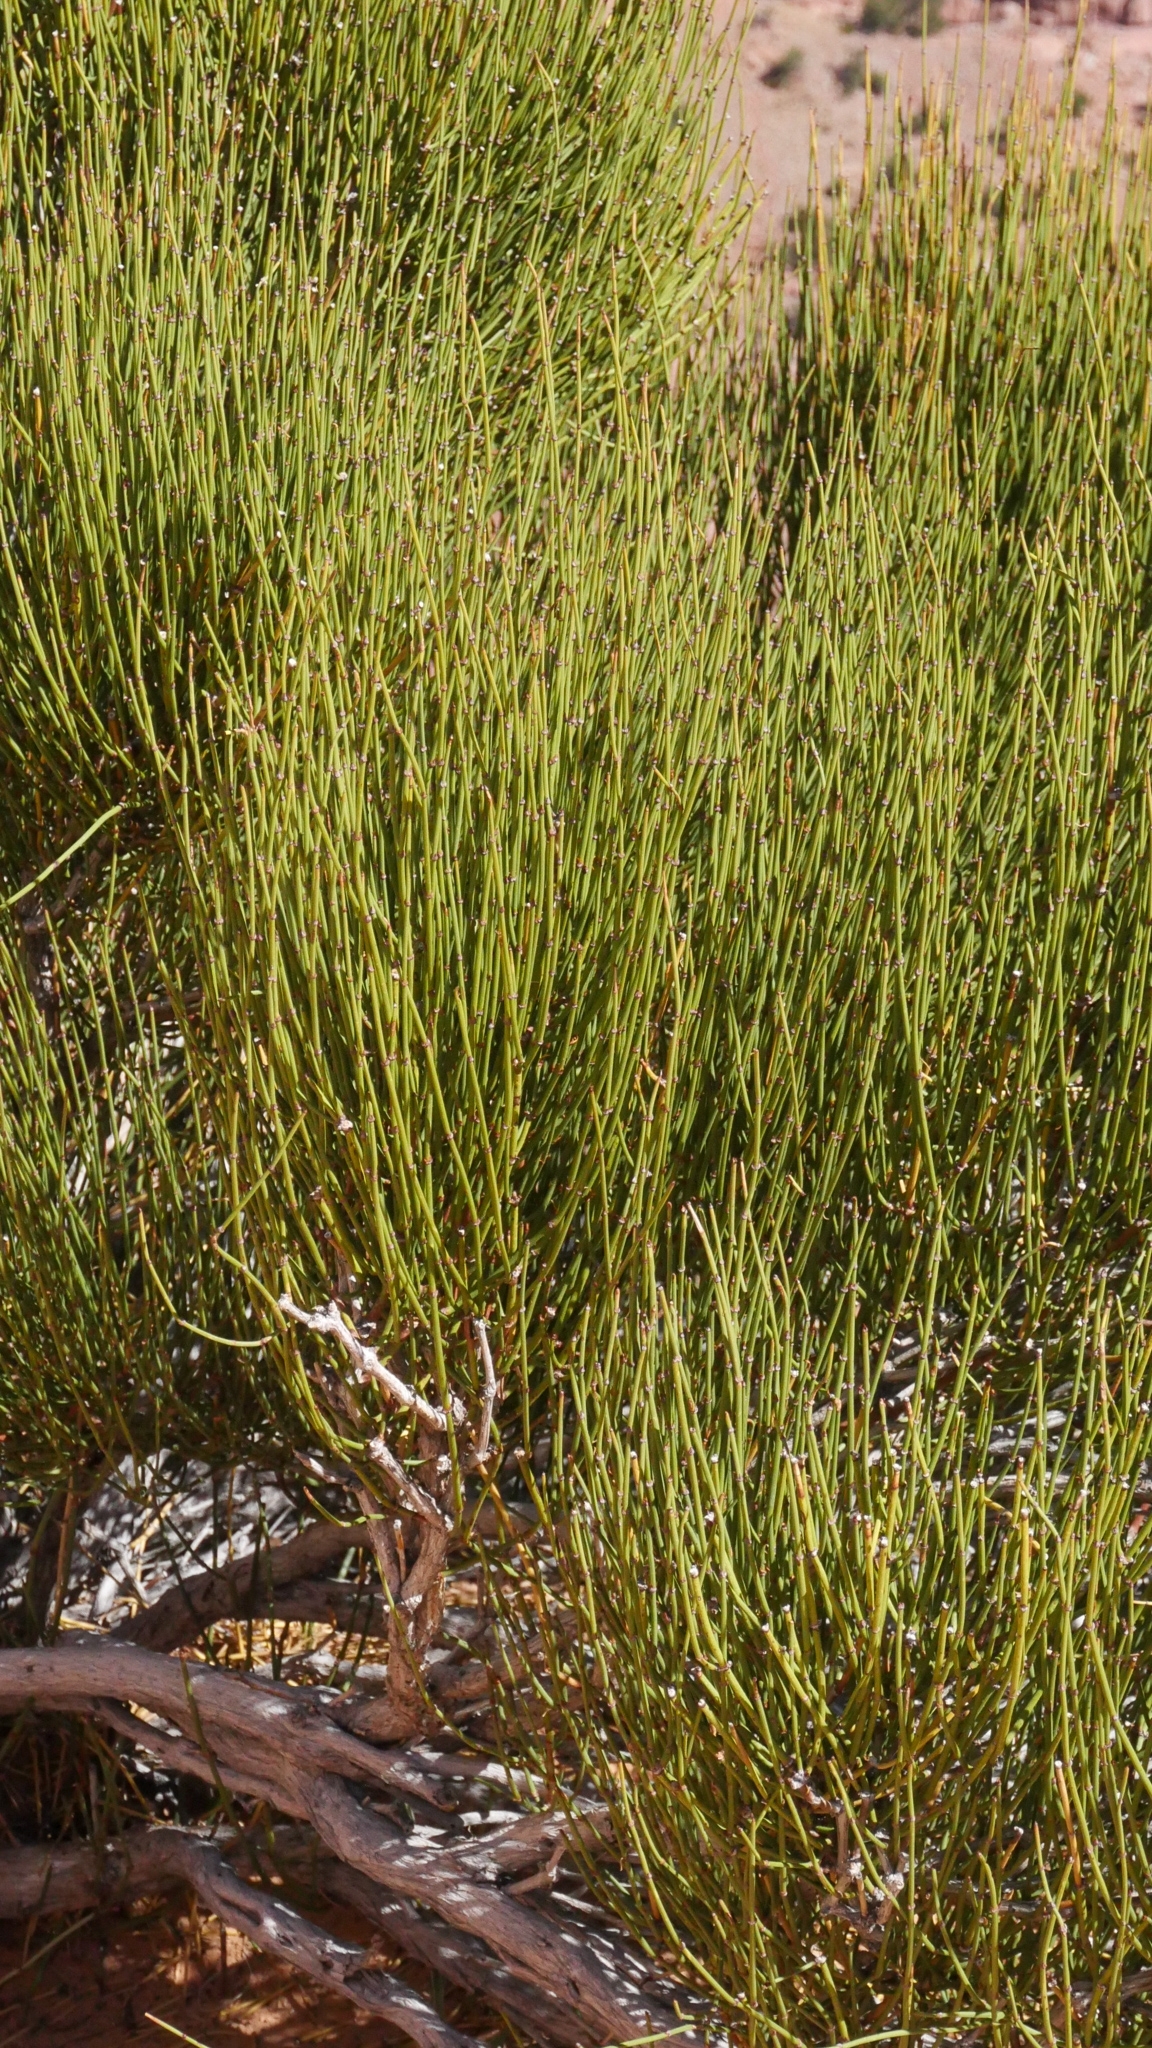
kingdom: Plantae
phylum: Tracheophyta
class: Gnetopsida
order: Ephedrales
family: Ephedraceae
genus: Ephedra
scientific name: Ephedra viridis
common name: Green ephedra
